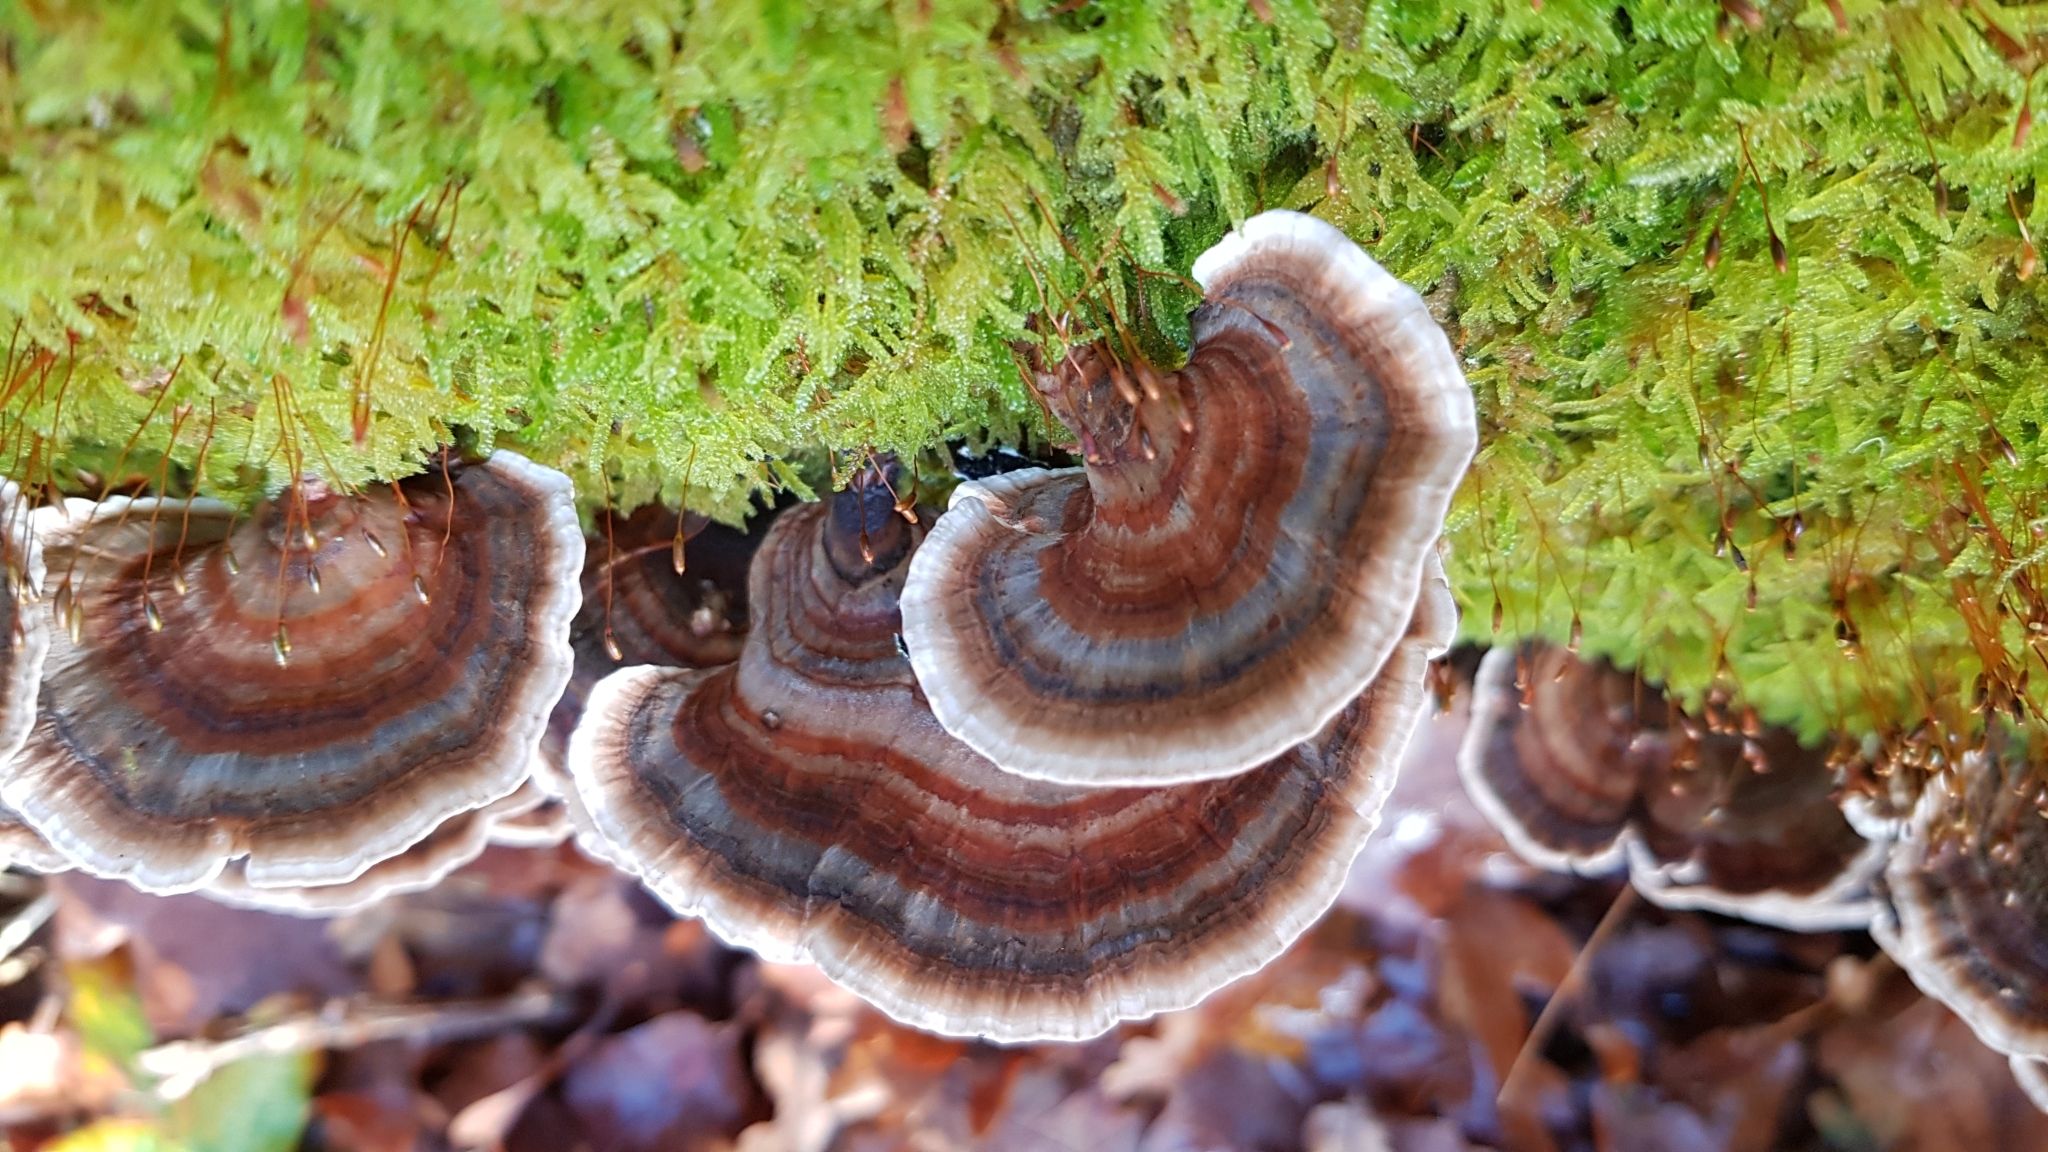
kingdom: Fungi
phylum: Basidiomycota
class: Agaricomycetes
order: Polyporales
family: Polyporaceae
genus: Trametes
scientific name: Trametes versicolor
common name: Turkeytail
